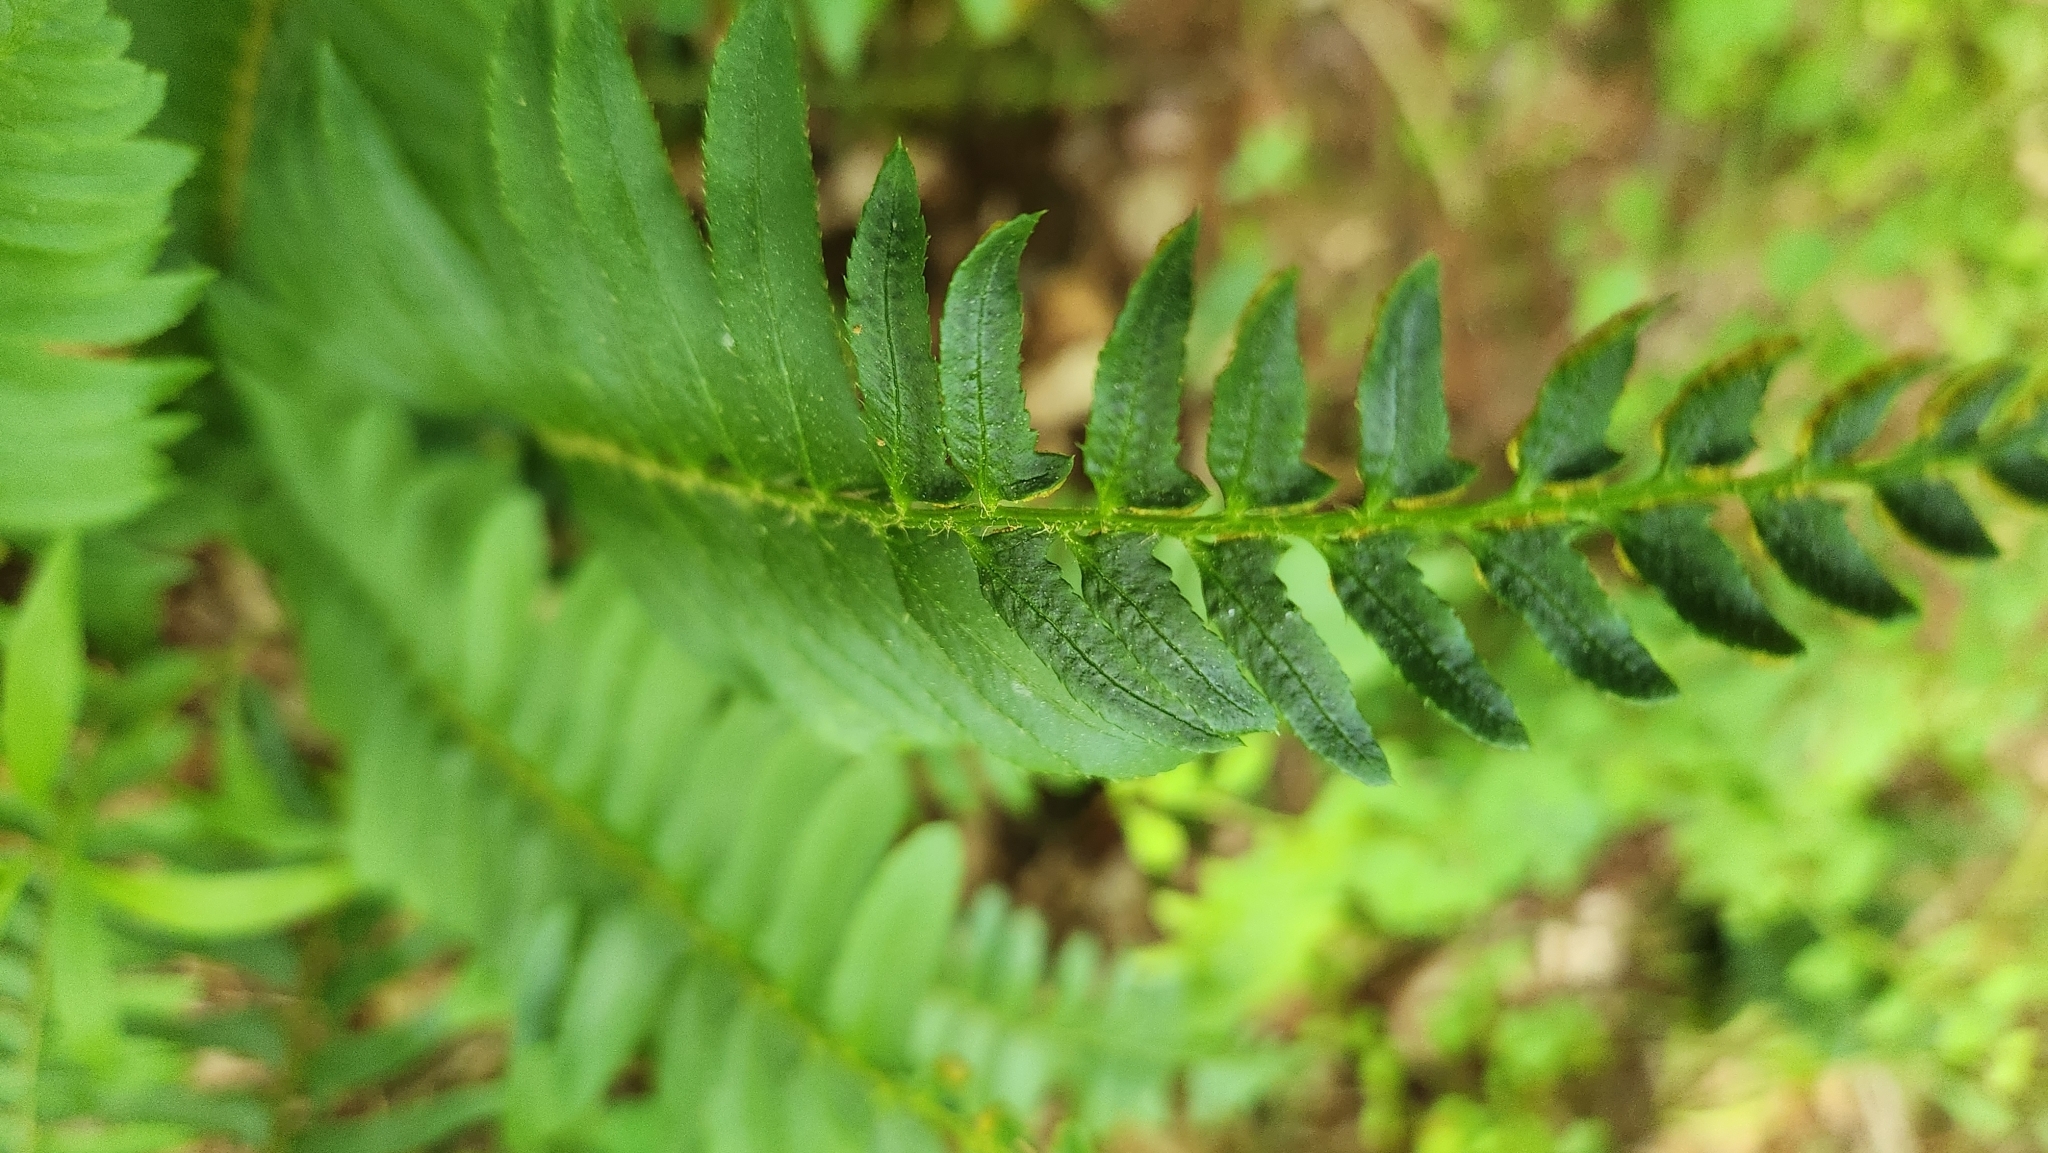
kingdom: Plantae
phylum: Tracheophyta
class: Polypodiopsida
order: Polypodiales
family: Dryopteridaceae
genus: Polystichum
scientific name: Polystichum acrostichoides
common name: Christmas fern
